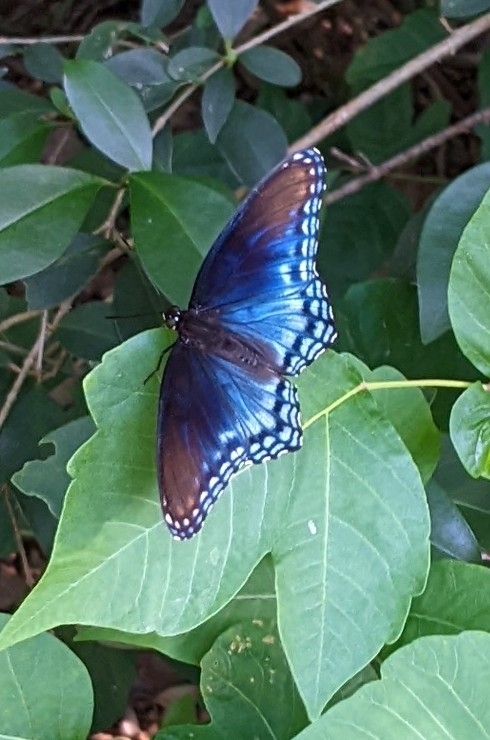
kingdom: Animalia
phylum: Arthropoda
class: Insecta
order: Lepidoptera
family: Nymphalidae
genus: Limenitis
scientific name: Limenitis arthemis
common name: Red-spotted admiral
